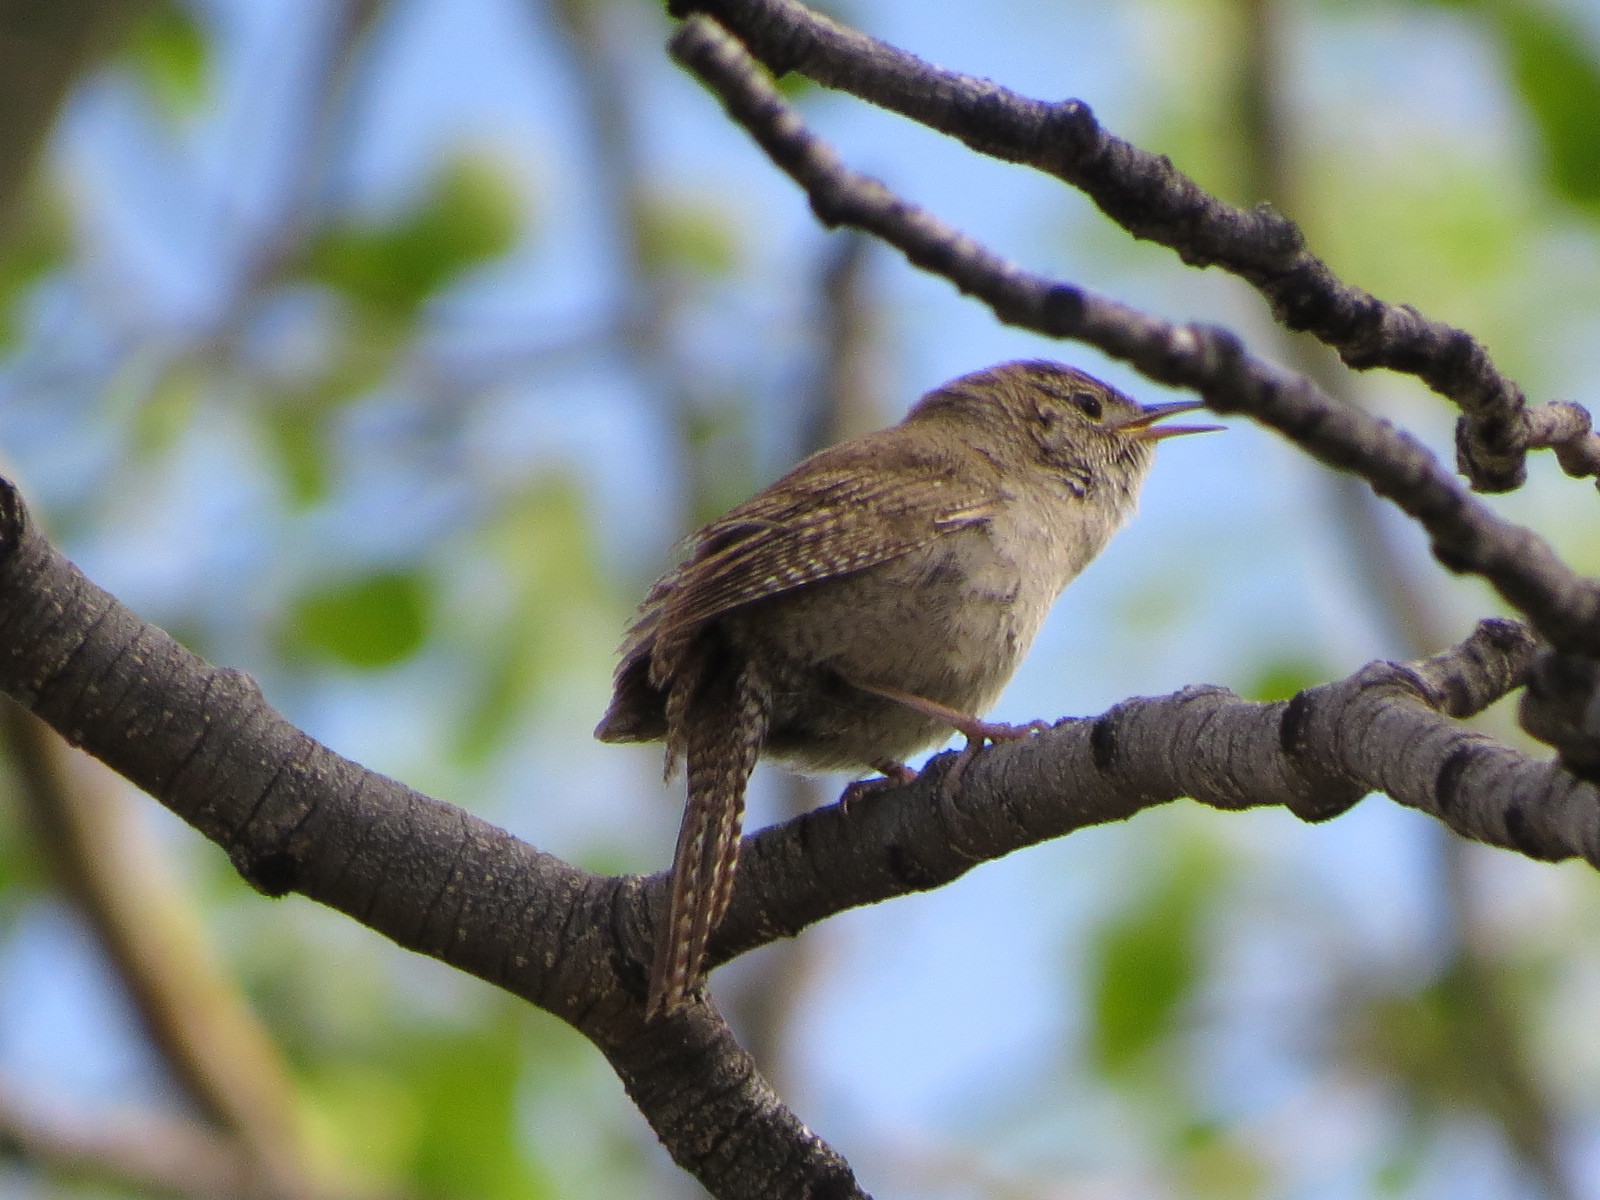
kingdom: Animalia
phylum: Chordata
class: Aves
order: Passeriformes
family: Troglodytidae
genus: Troglodytes
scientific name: Troglodytes aedon
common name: House wren
